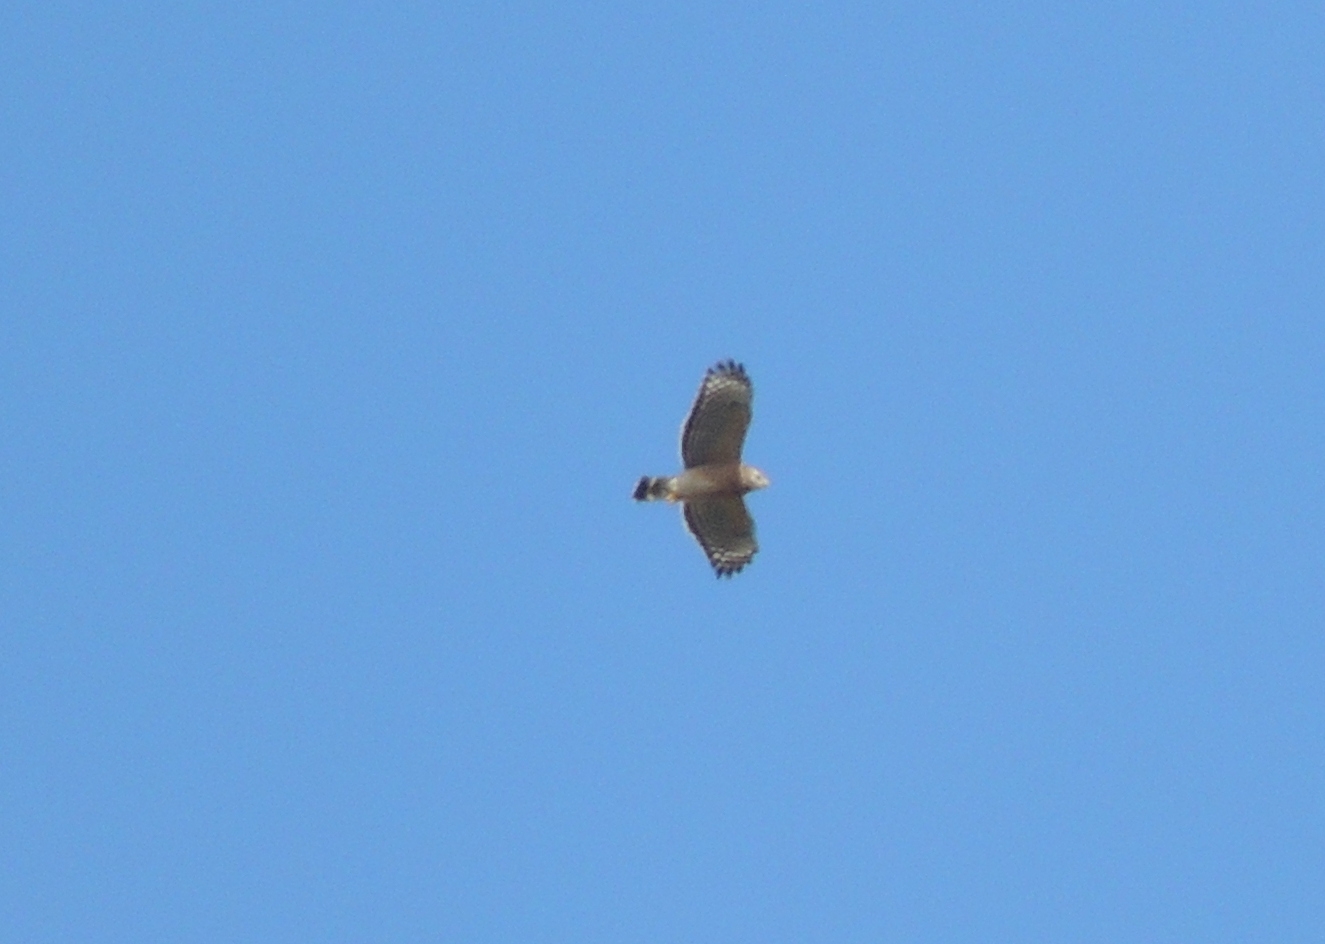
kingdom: Animalia
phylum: Chordata
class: Aves
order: Accipitriformes
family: Accipitridae
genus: Buteo
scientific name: Buteo lineatus
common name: Red-shouldered hawk
